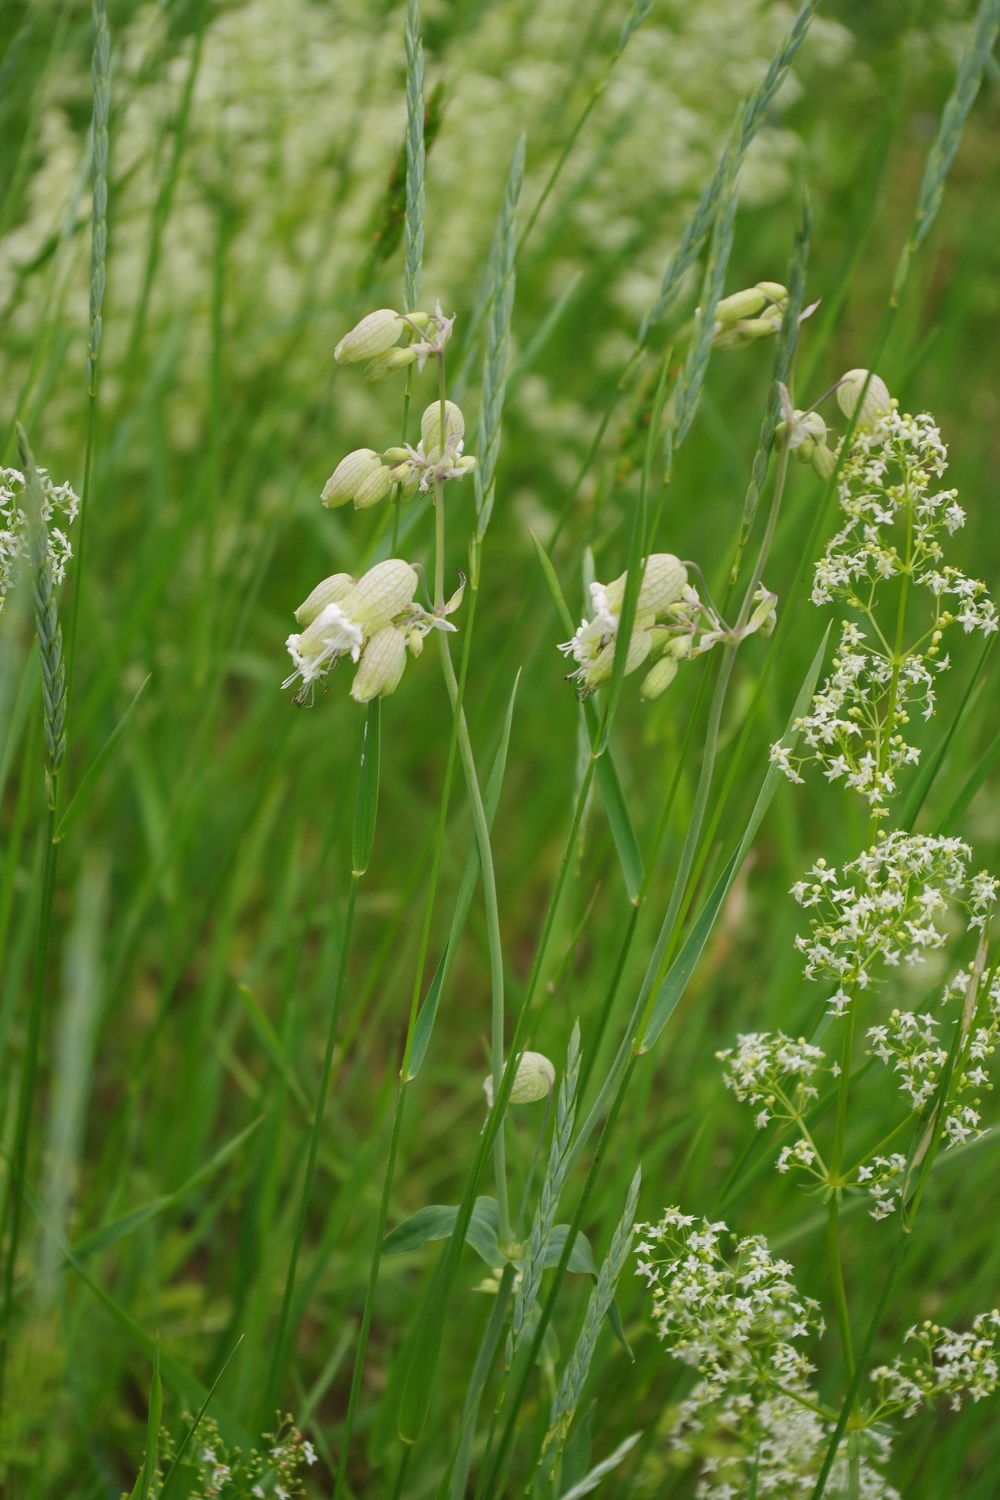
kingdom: Plantae
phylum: Tracheophyta
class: Magnoliopsida
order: Caryophyllales
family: Caryophyllaceae
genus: Silene
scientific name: Silene vulgaris
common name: Bladder campion
